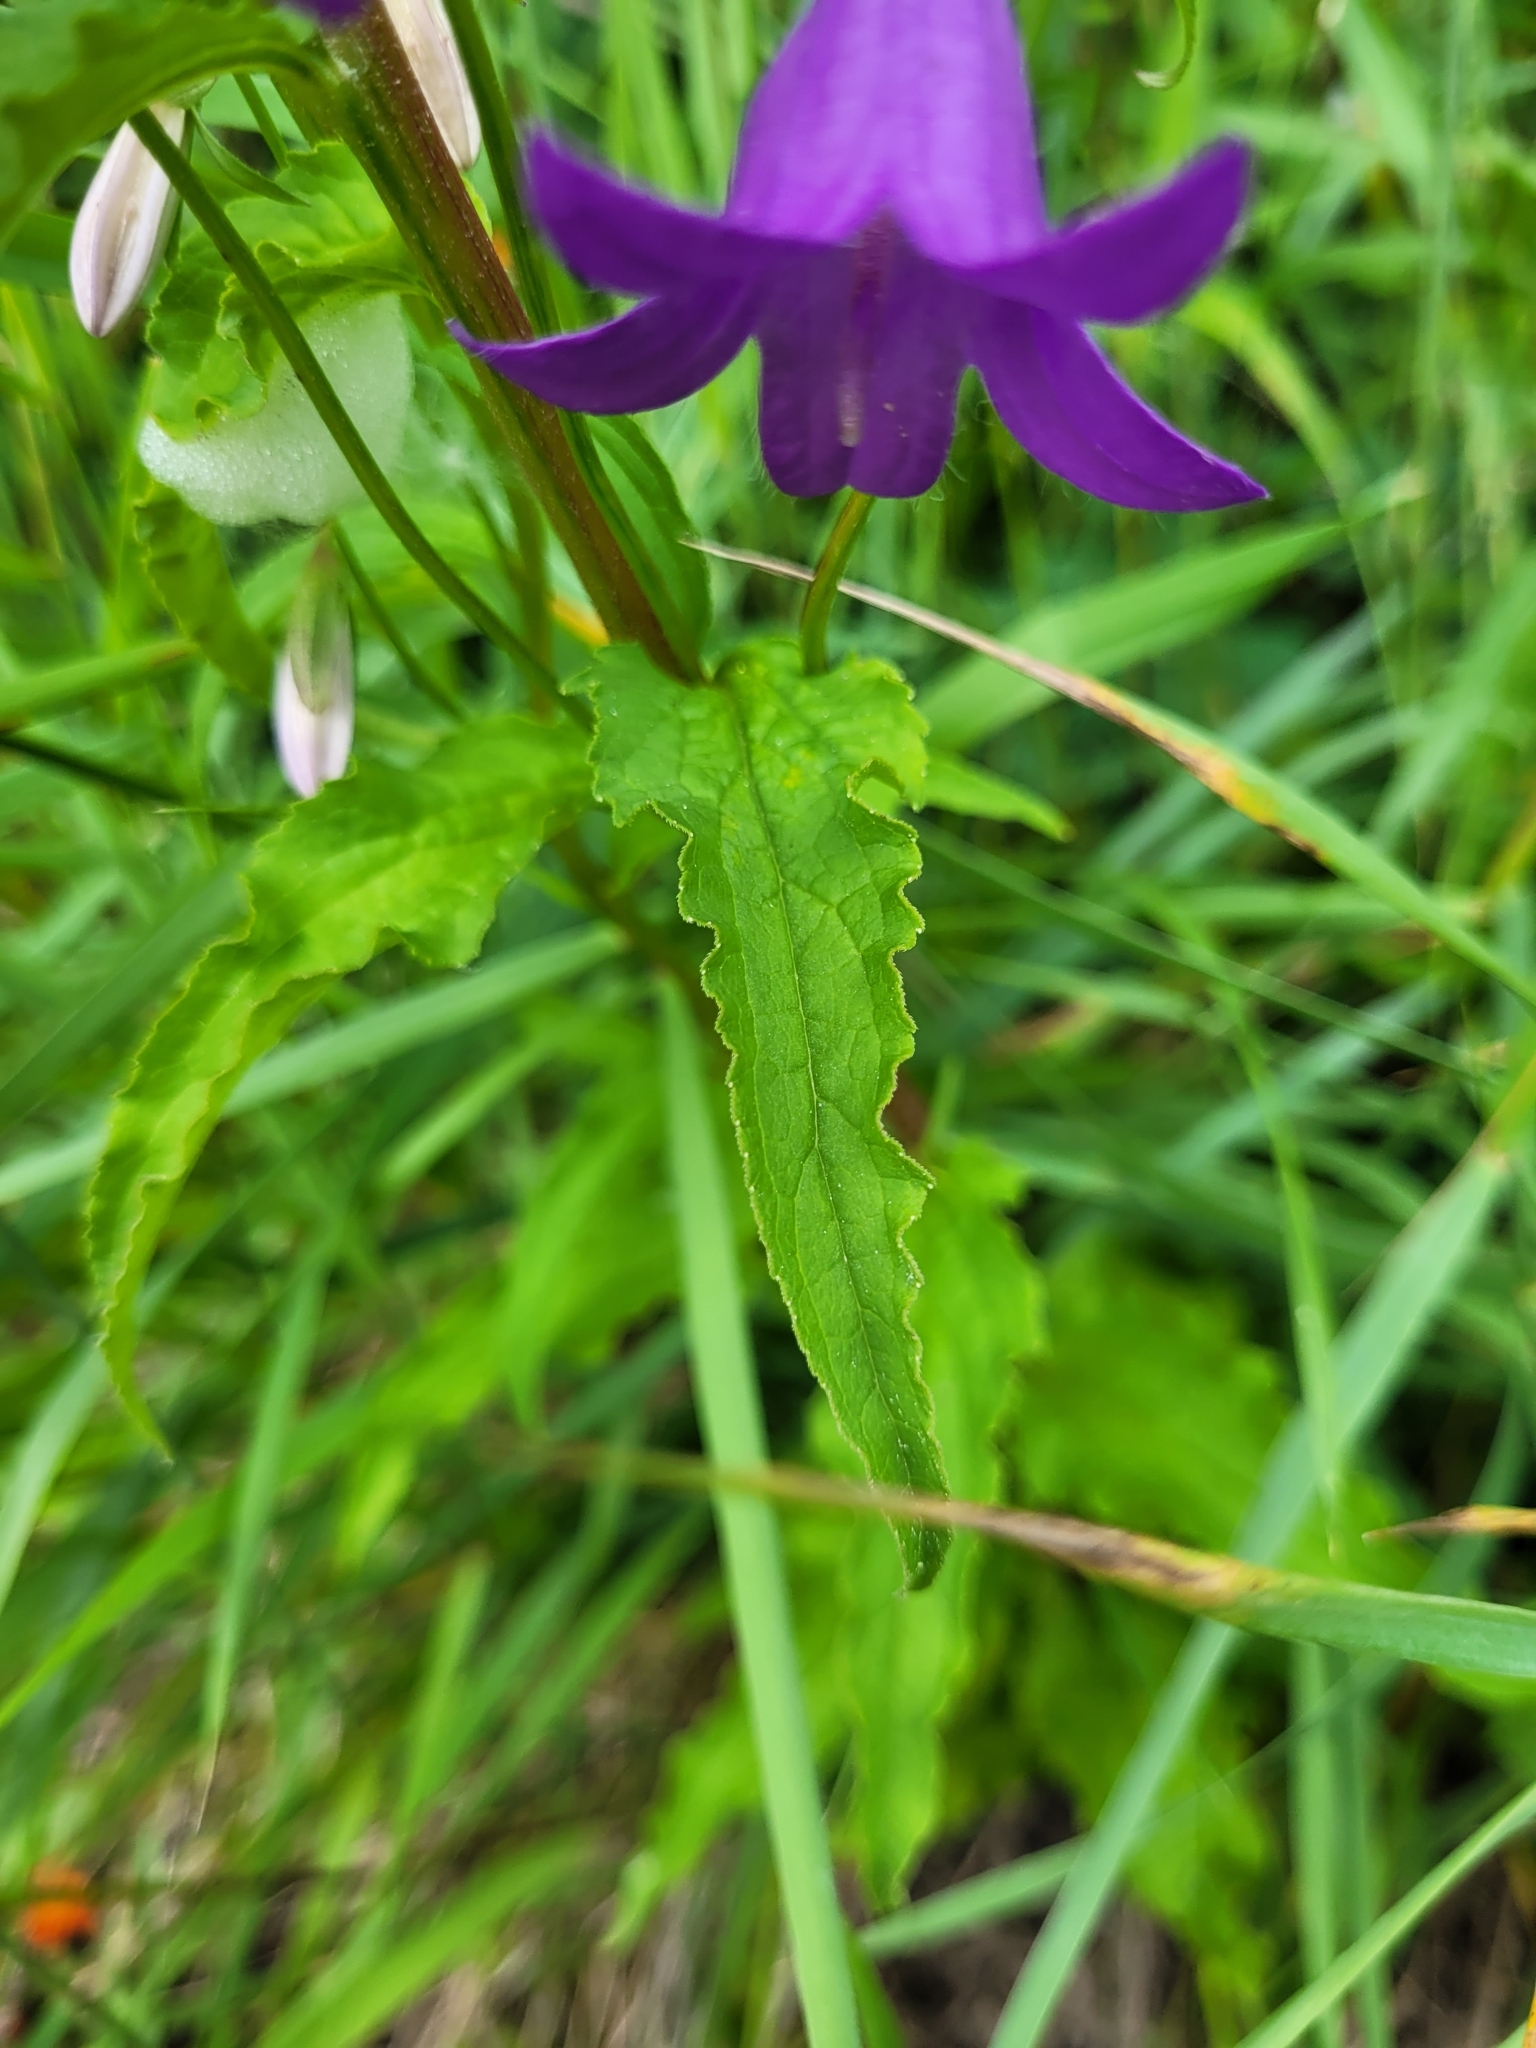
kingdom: Plantae
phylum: Tracheophyta
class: Magnoliopsida
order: Asterales
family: Campanulaceae
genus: Campanula
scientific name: Campanula rapunculoides
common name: Creeping bellflower
